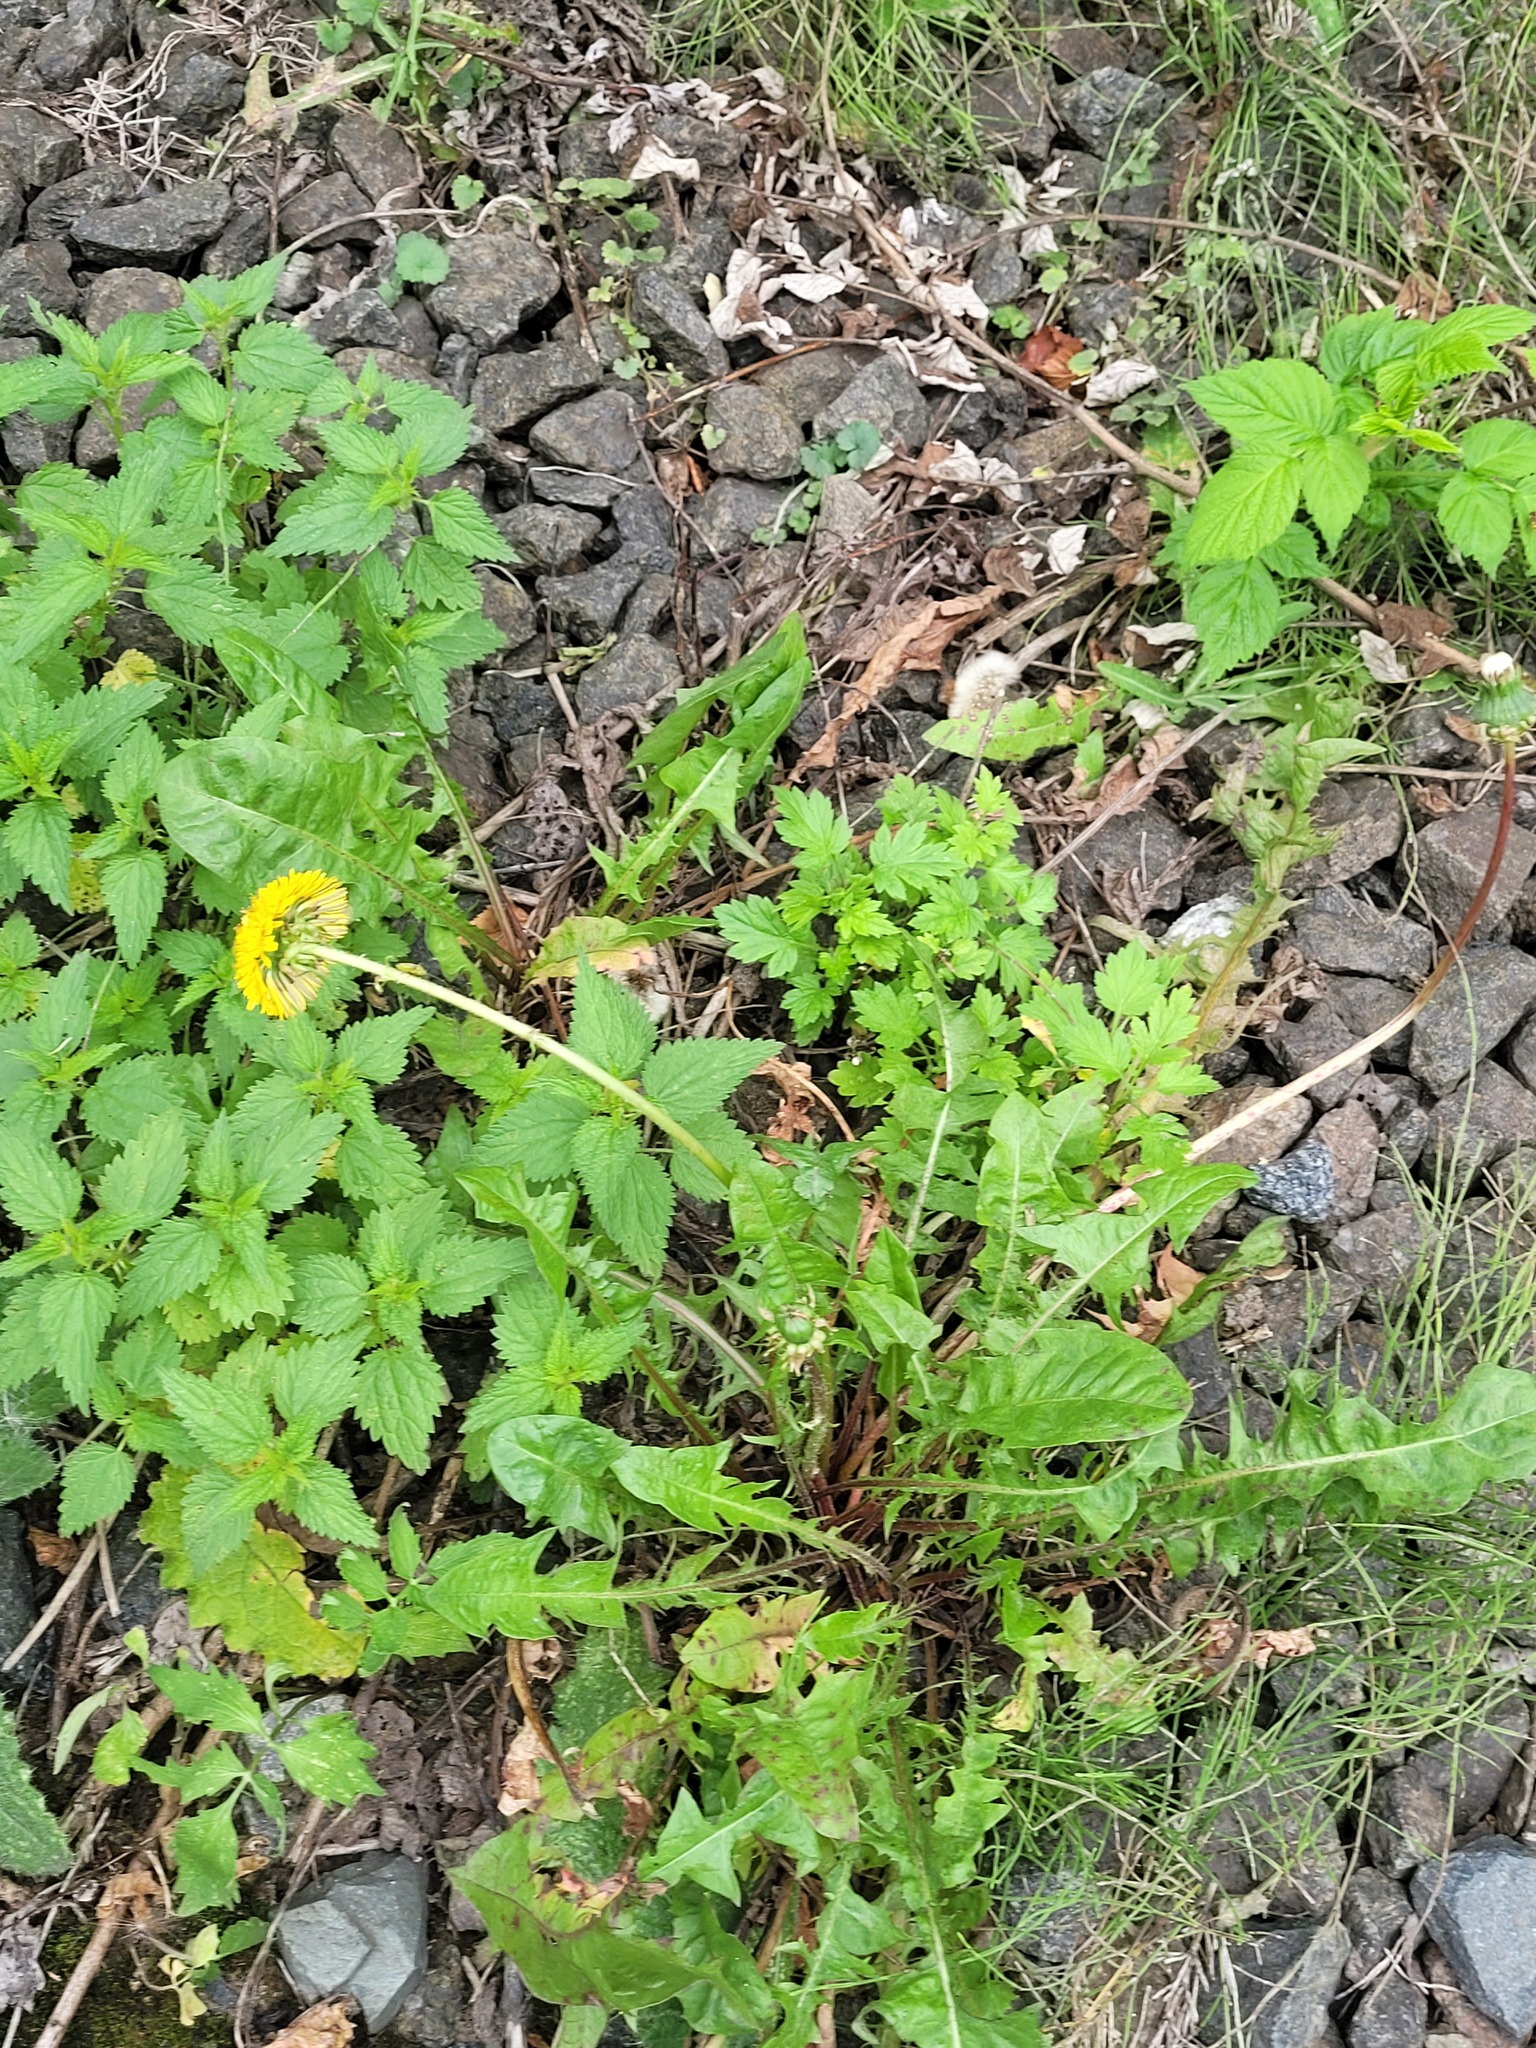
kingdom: Plantae
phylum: Tracheophyta
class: Magnoliopsida
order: Asterales
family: Asteraceae
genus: Taraxacum
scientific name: Taraxacum officinale
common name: Common dandelion
